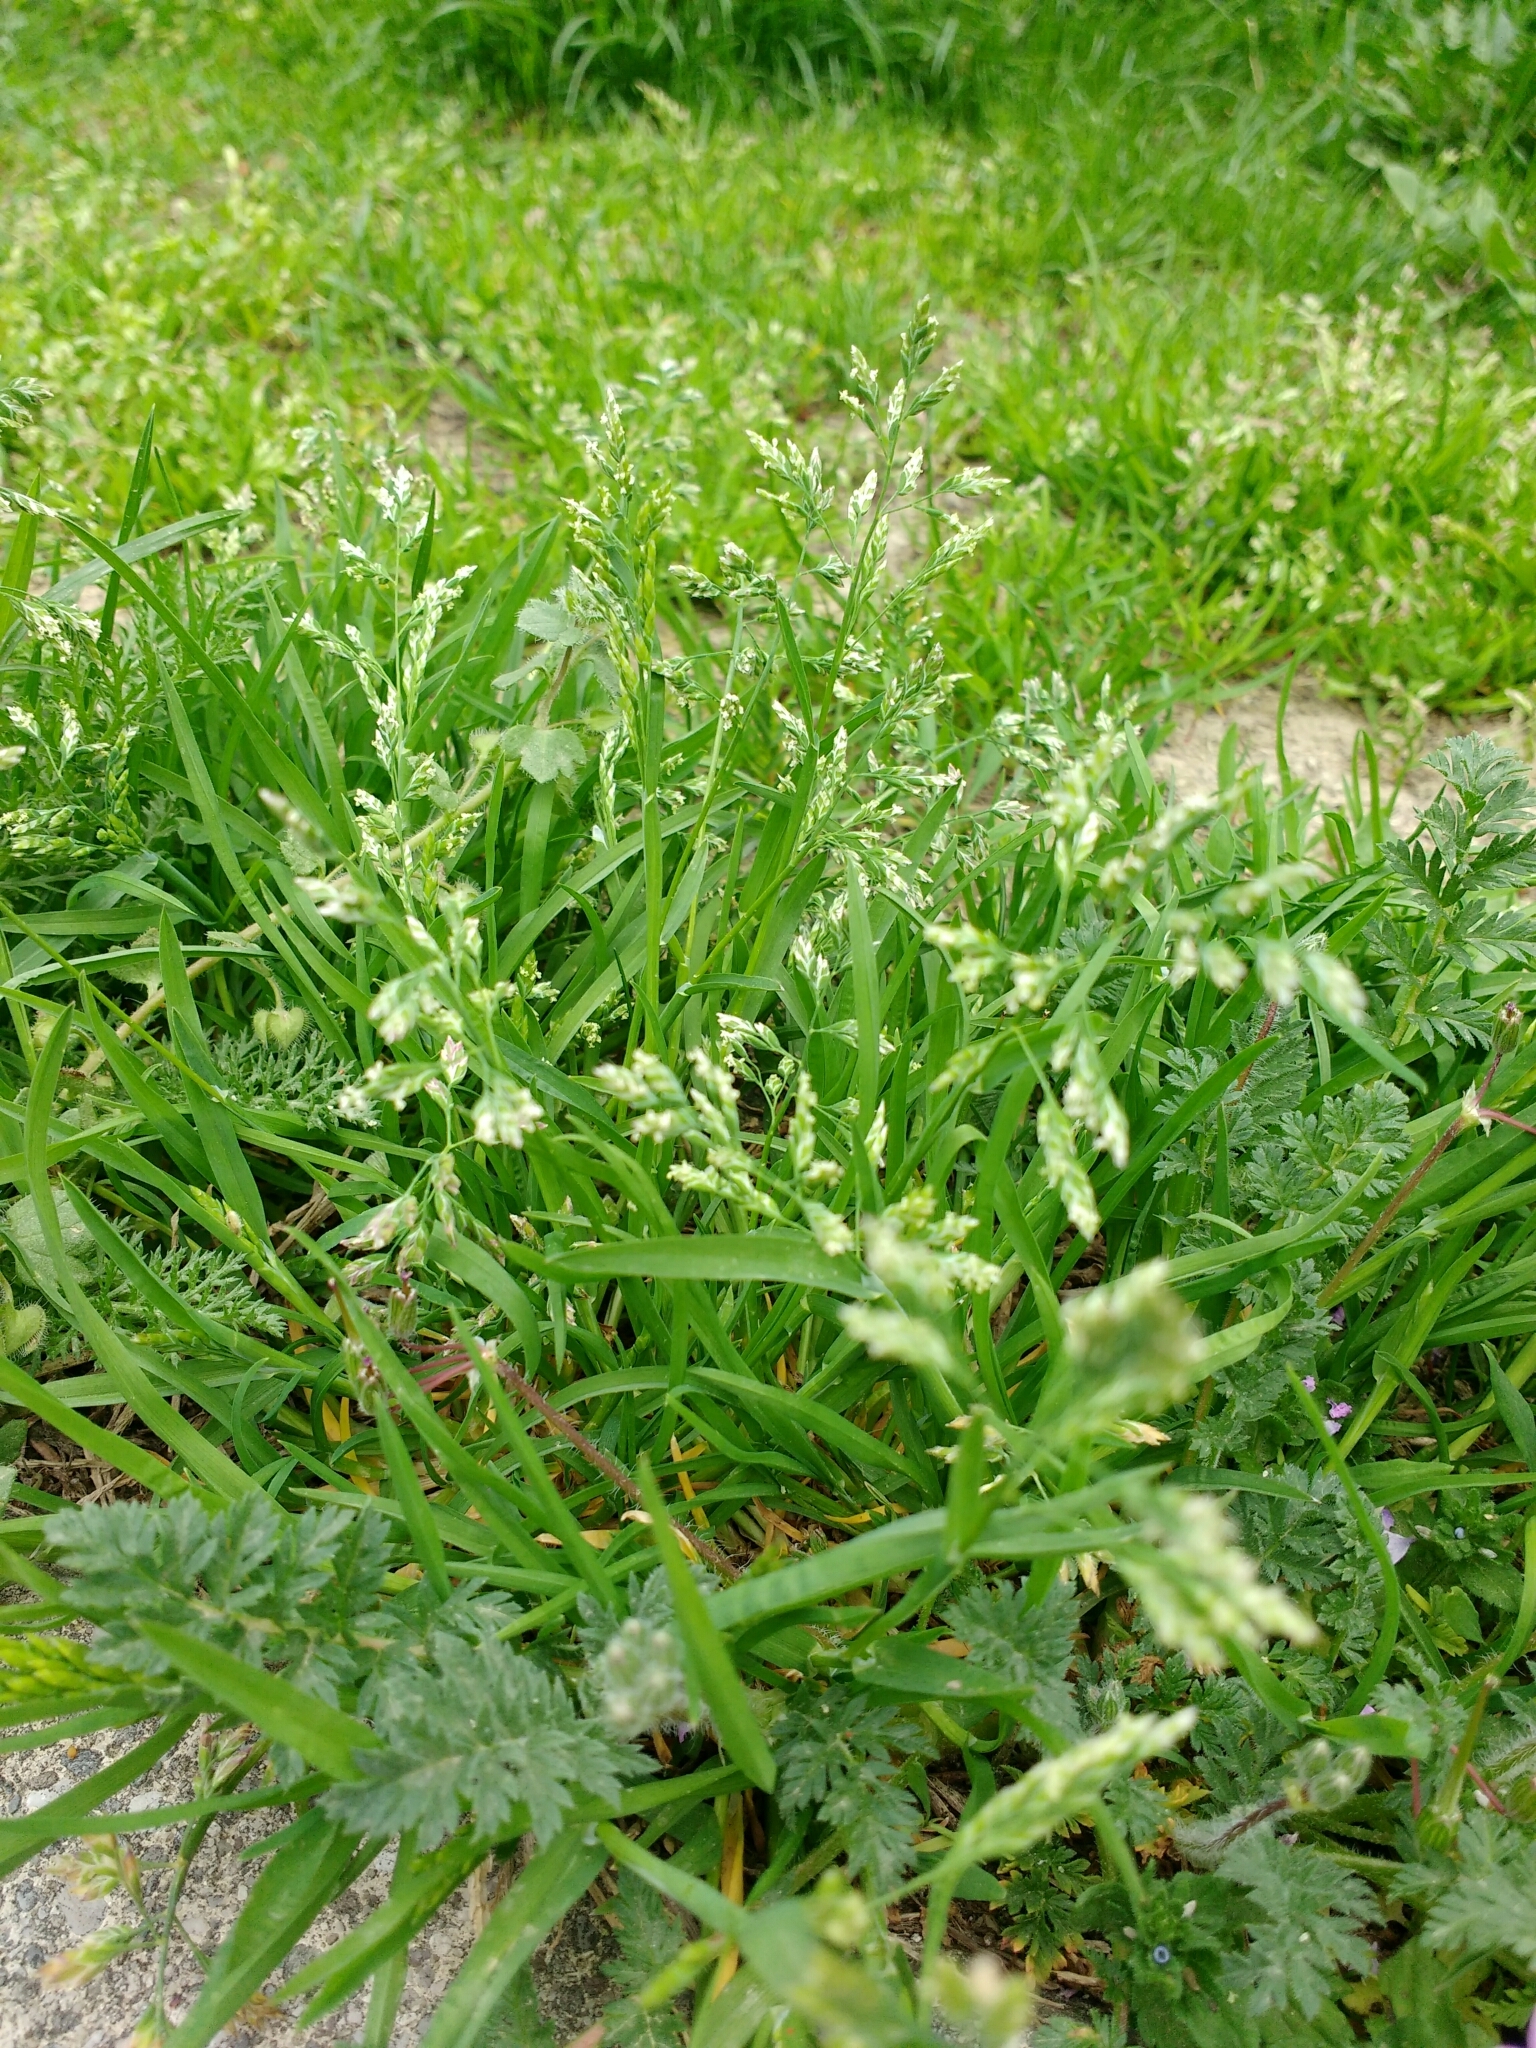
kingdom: Plantae
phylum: Tracheophyta
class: Liliopsida
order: Poales
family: Poaceae
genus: Poa
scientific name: Poa annua
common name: Annual bluegrass
